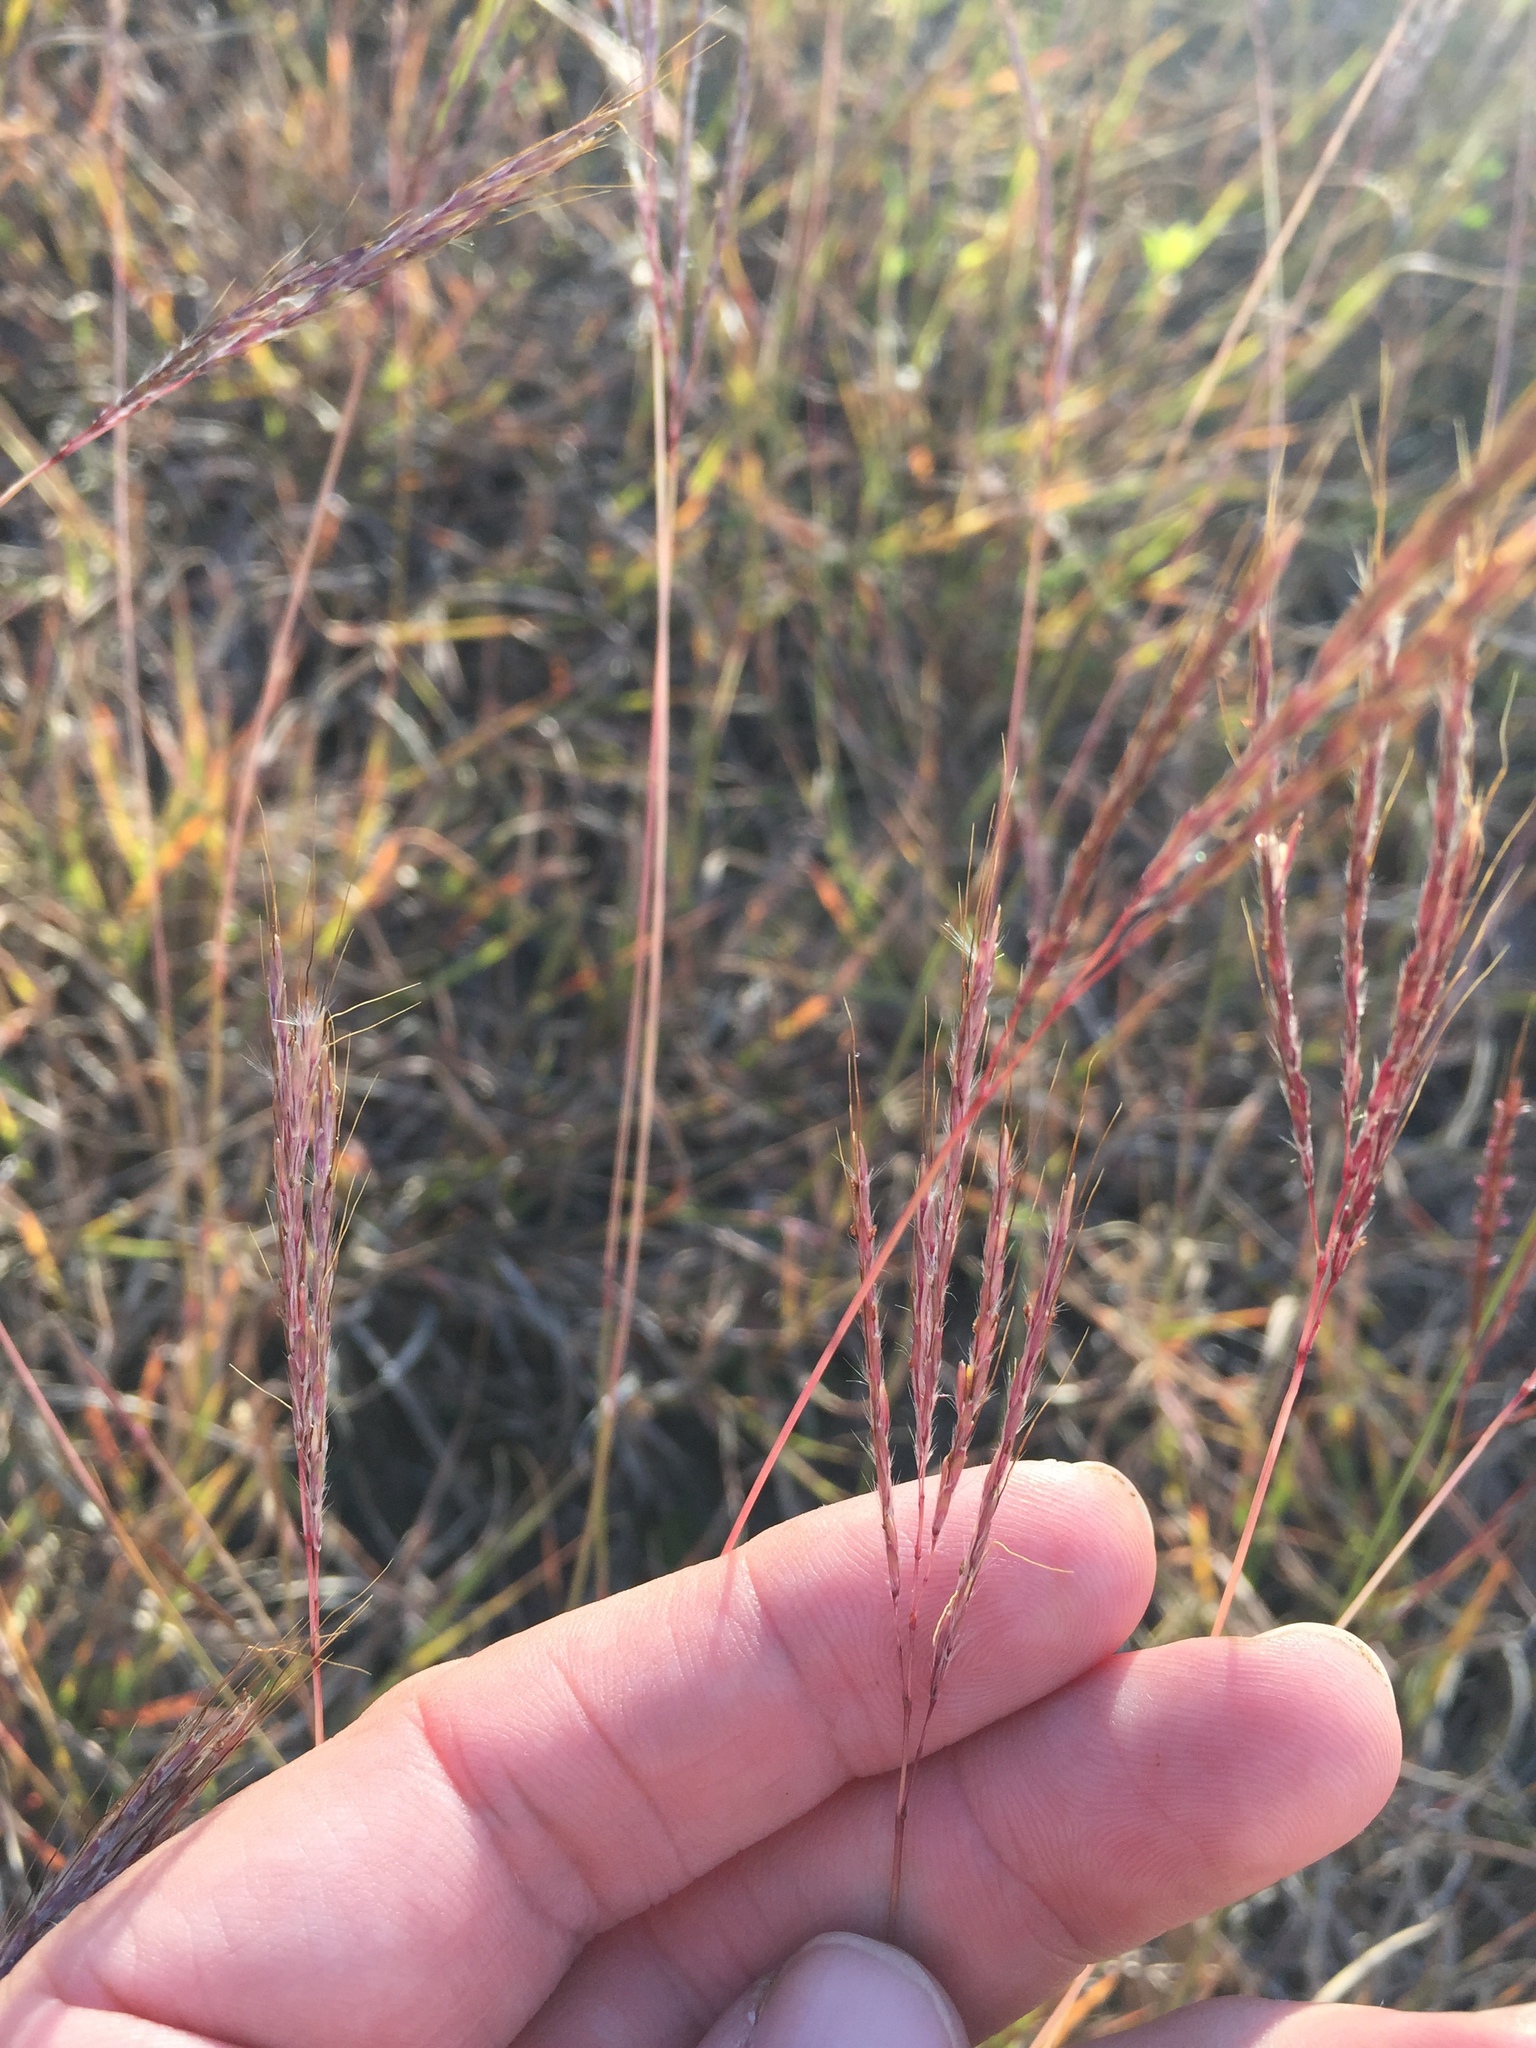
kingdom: Plantae
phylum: Tracheophyta
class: Liliopsida
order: Poales
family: Poaceae
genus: Bothriochloa
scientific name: Bothriochloa ischaemum
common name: Yellow bluestem
